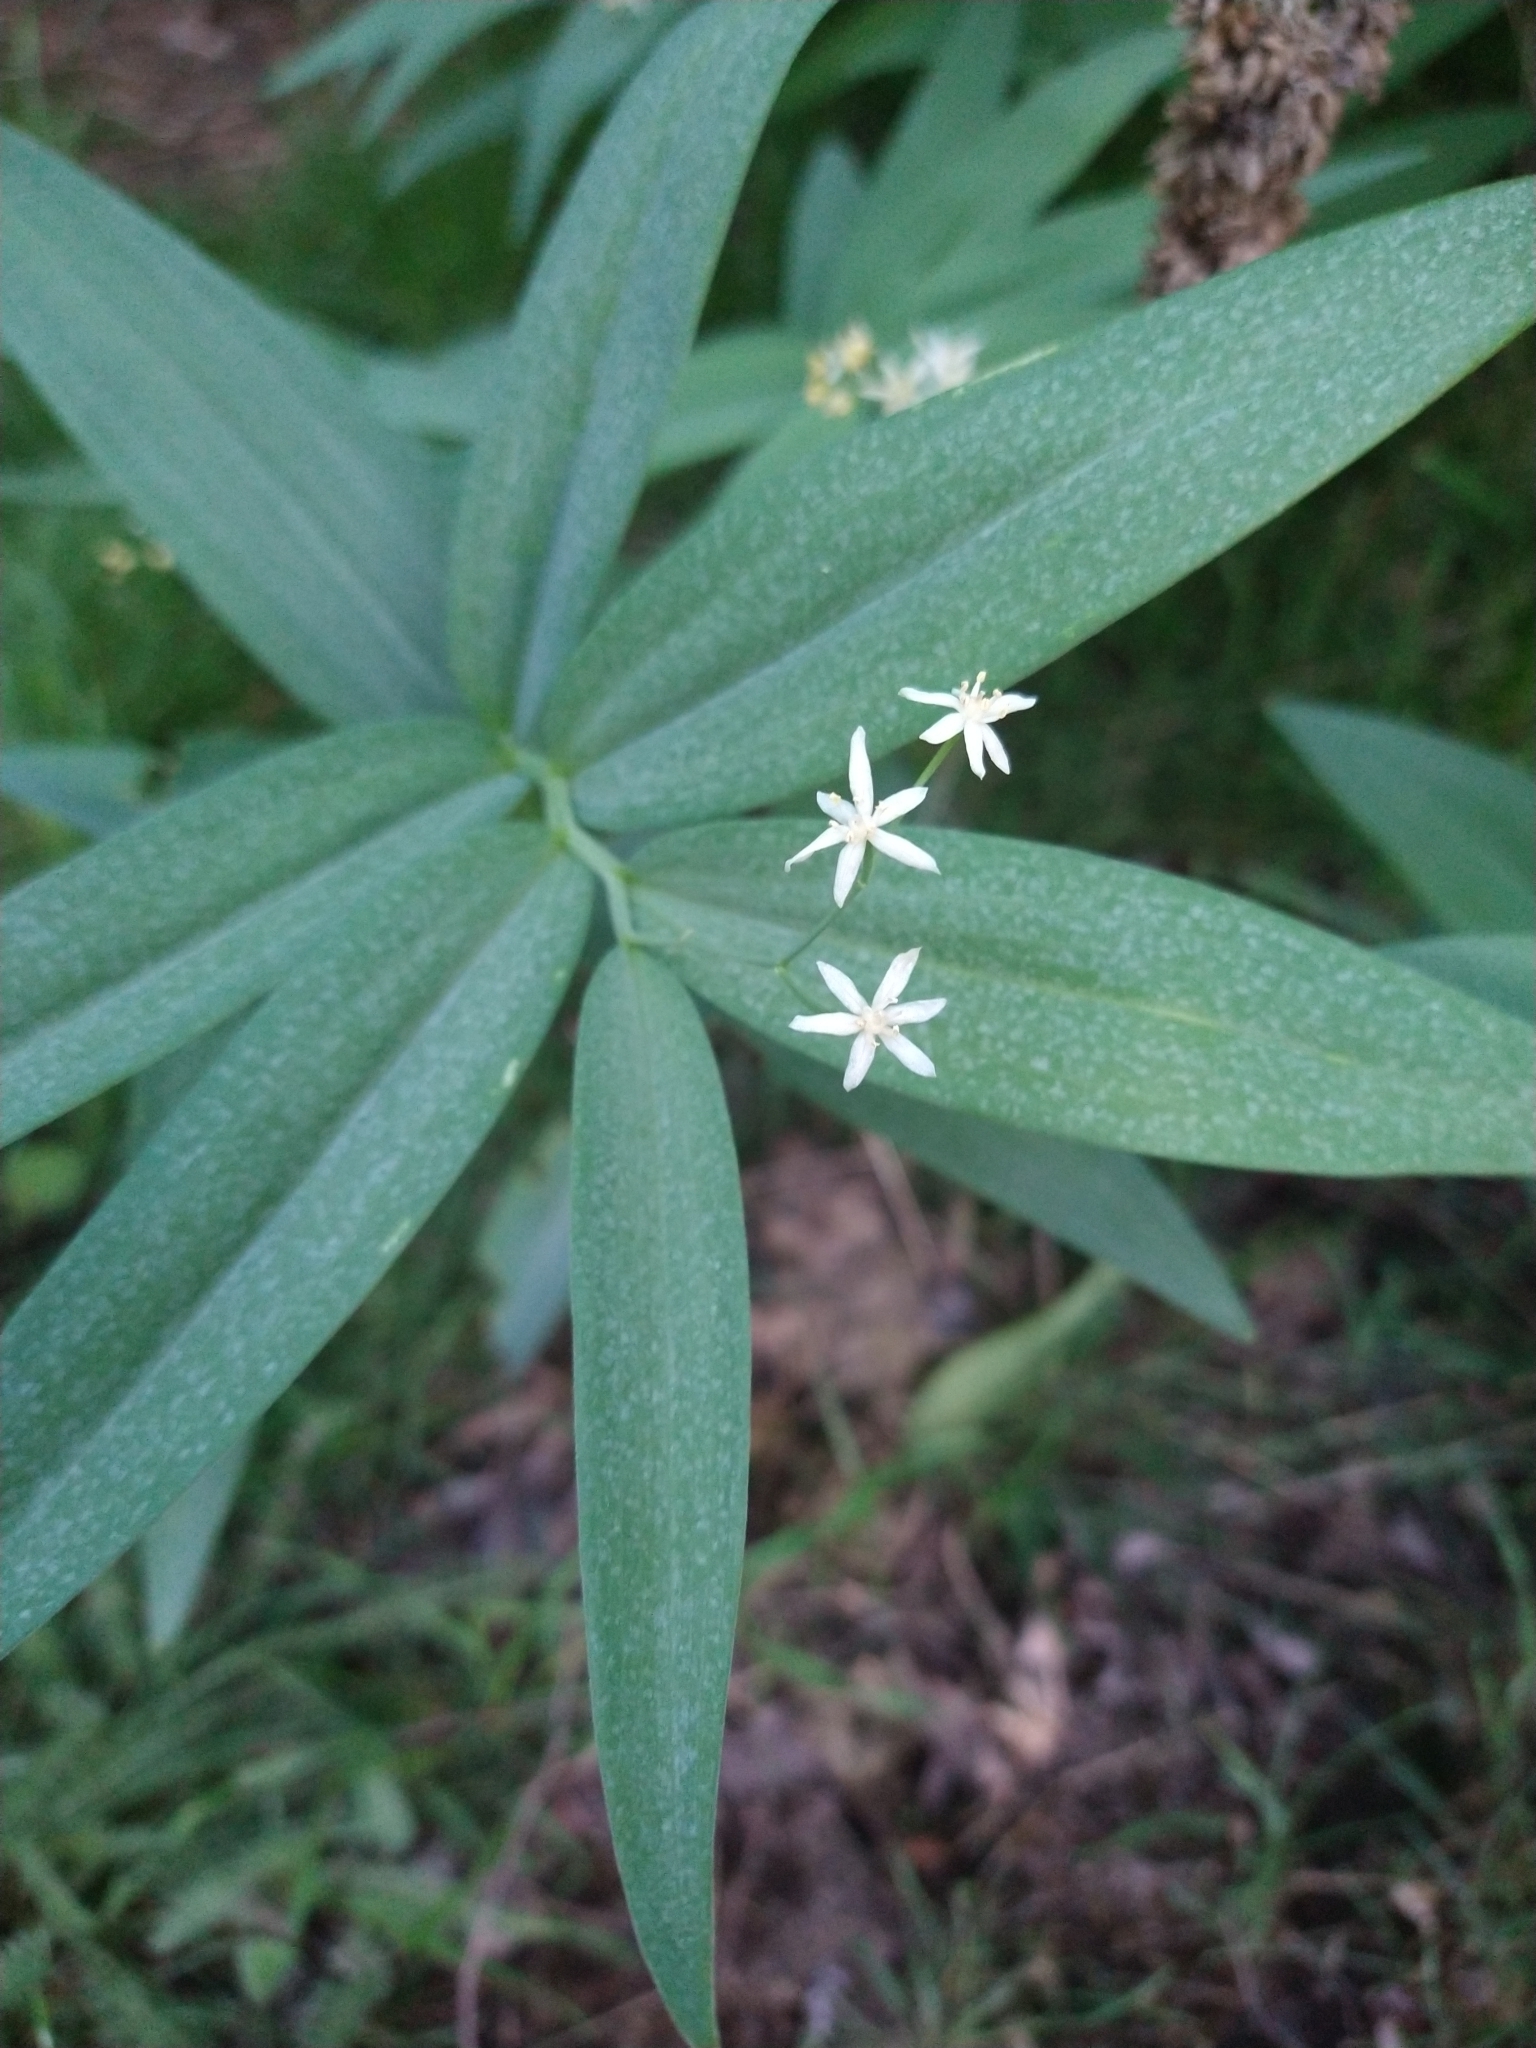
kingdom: Plantae
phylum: Tracheophyta
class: Liliopsida
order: Asparagales
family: Asparagaceae
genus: Maianthemum
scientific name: Maianthemum stellatum
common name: Little false solomon's seal
